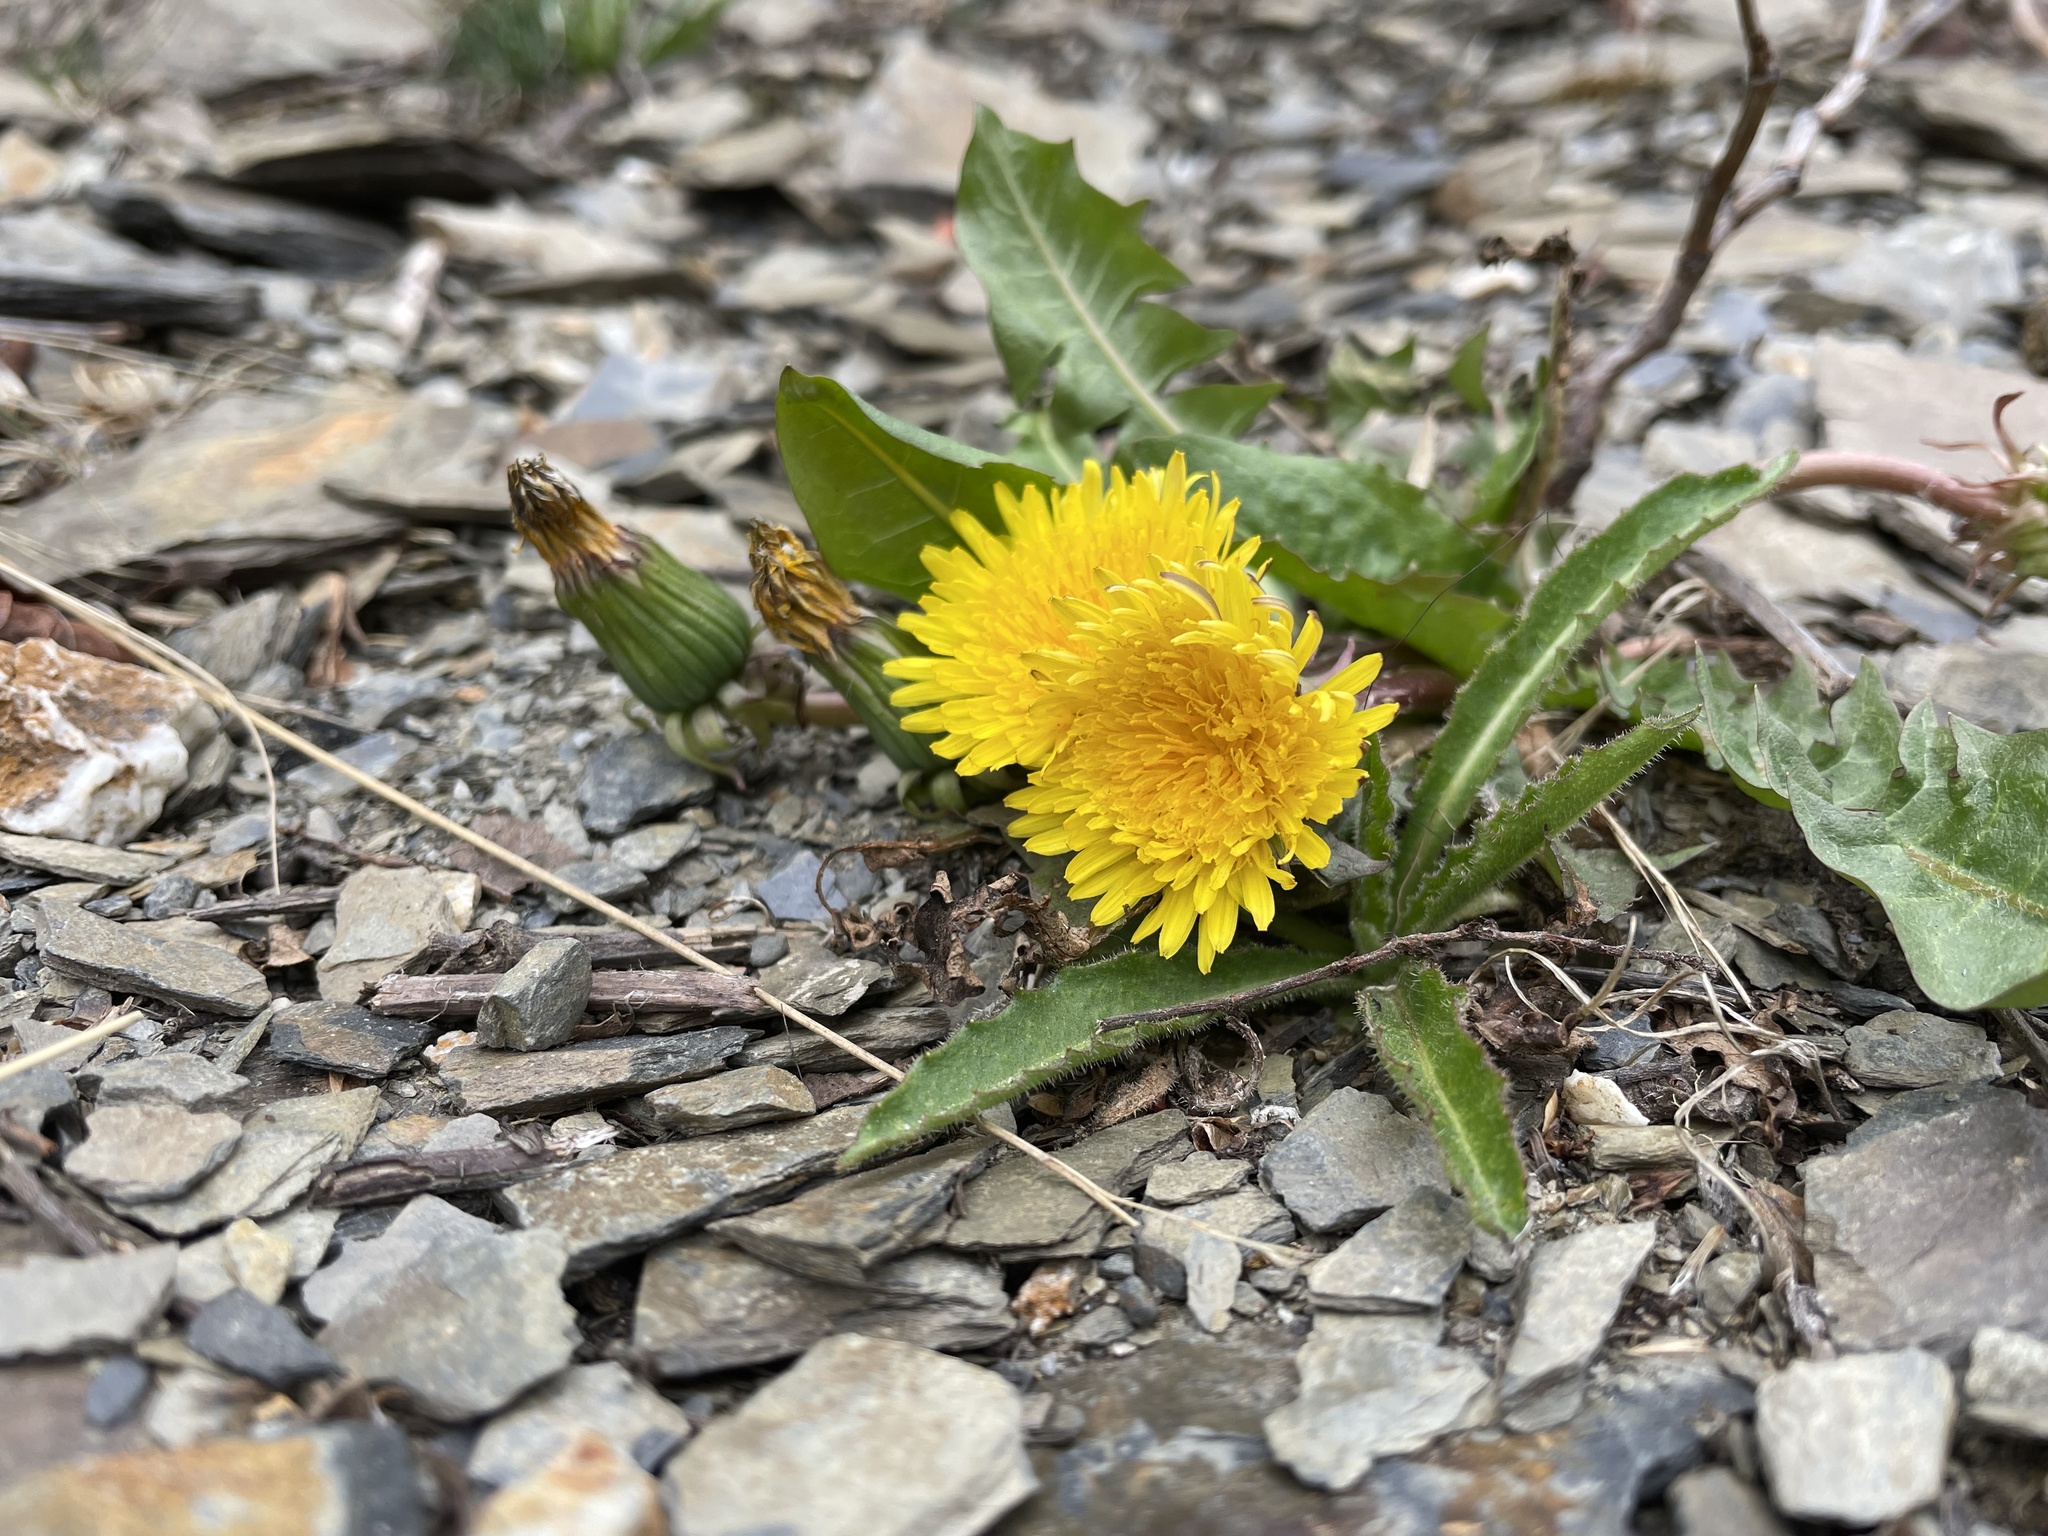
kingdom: Plantae
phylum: Tracheophyta
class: Magnoliopsida
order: Asterales
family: Asteraceae
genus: Taraxacum
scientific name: Taraxacum officinale
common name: Common dandelion
